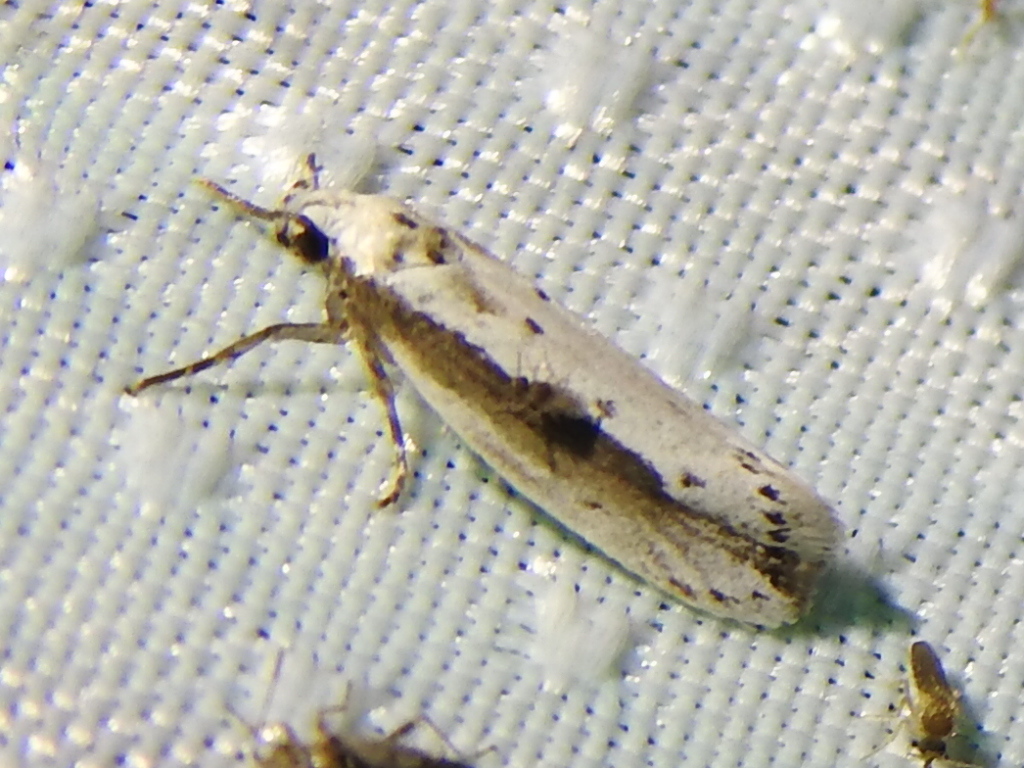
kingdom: Animalia
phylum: Arthropoda
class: Insecta
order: Lepidoptera
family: Ethmiidae
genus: Ethmia
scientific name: Ethmia mirusella
